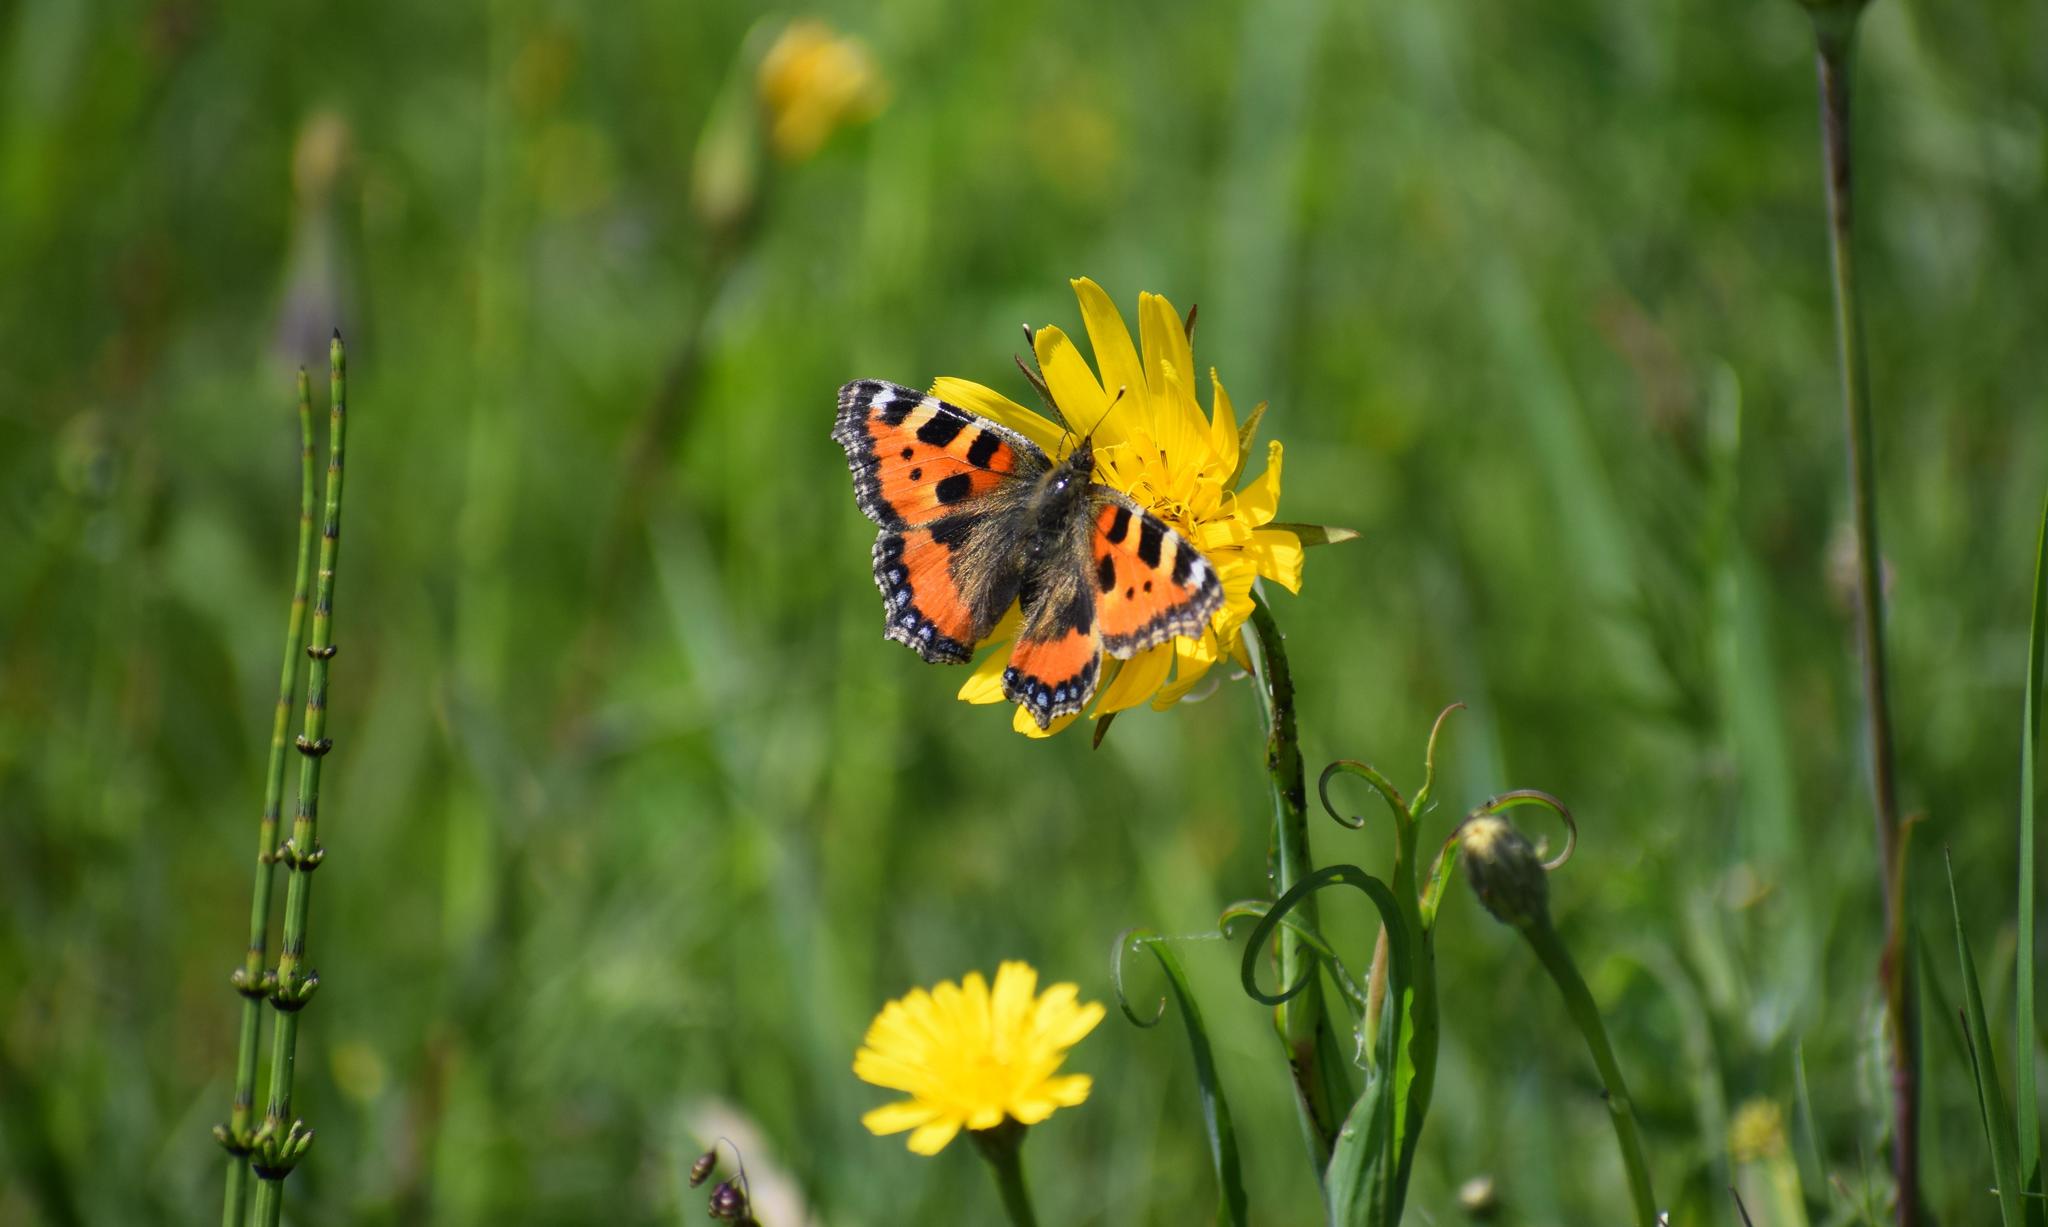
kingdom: Animalia
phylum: Arthropoda
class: Insecta
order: Lepidoptera
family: Nymphalidae
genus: Aglais
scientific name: Aglais urticae
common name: Small tortoiseshell
